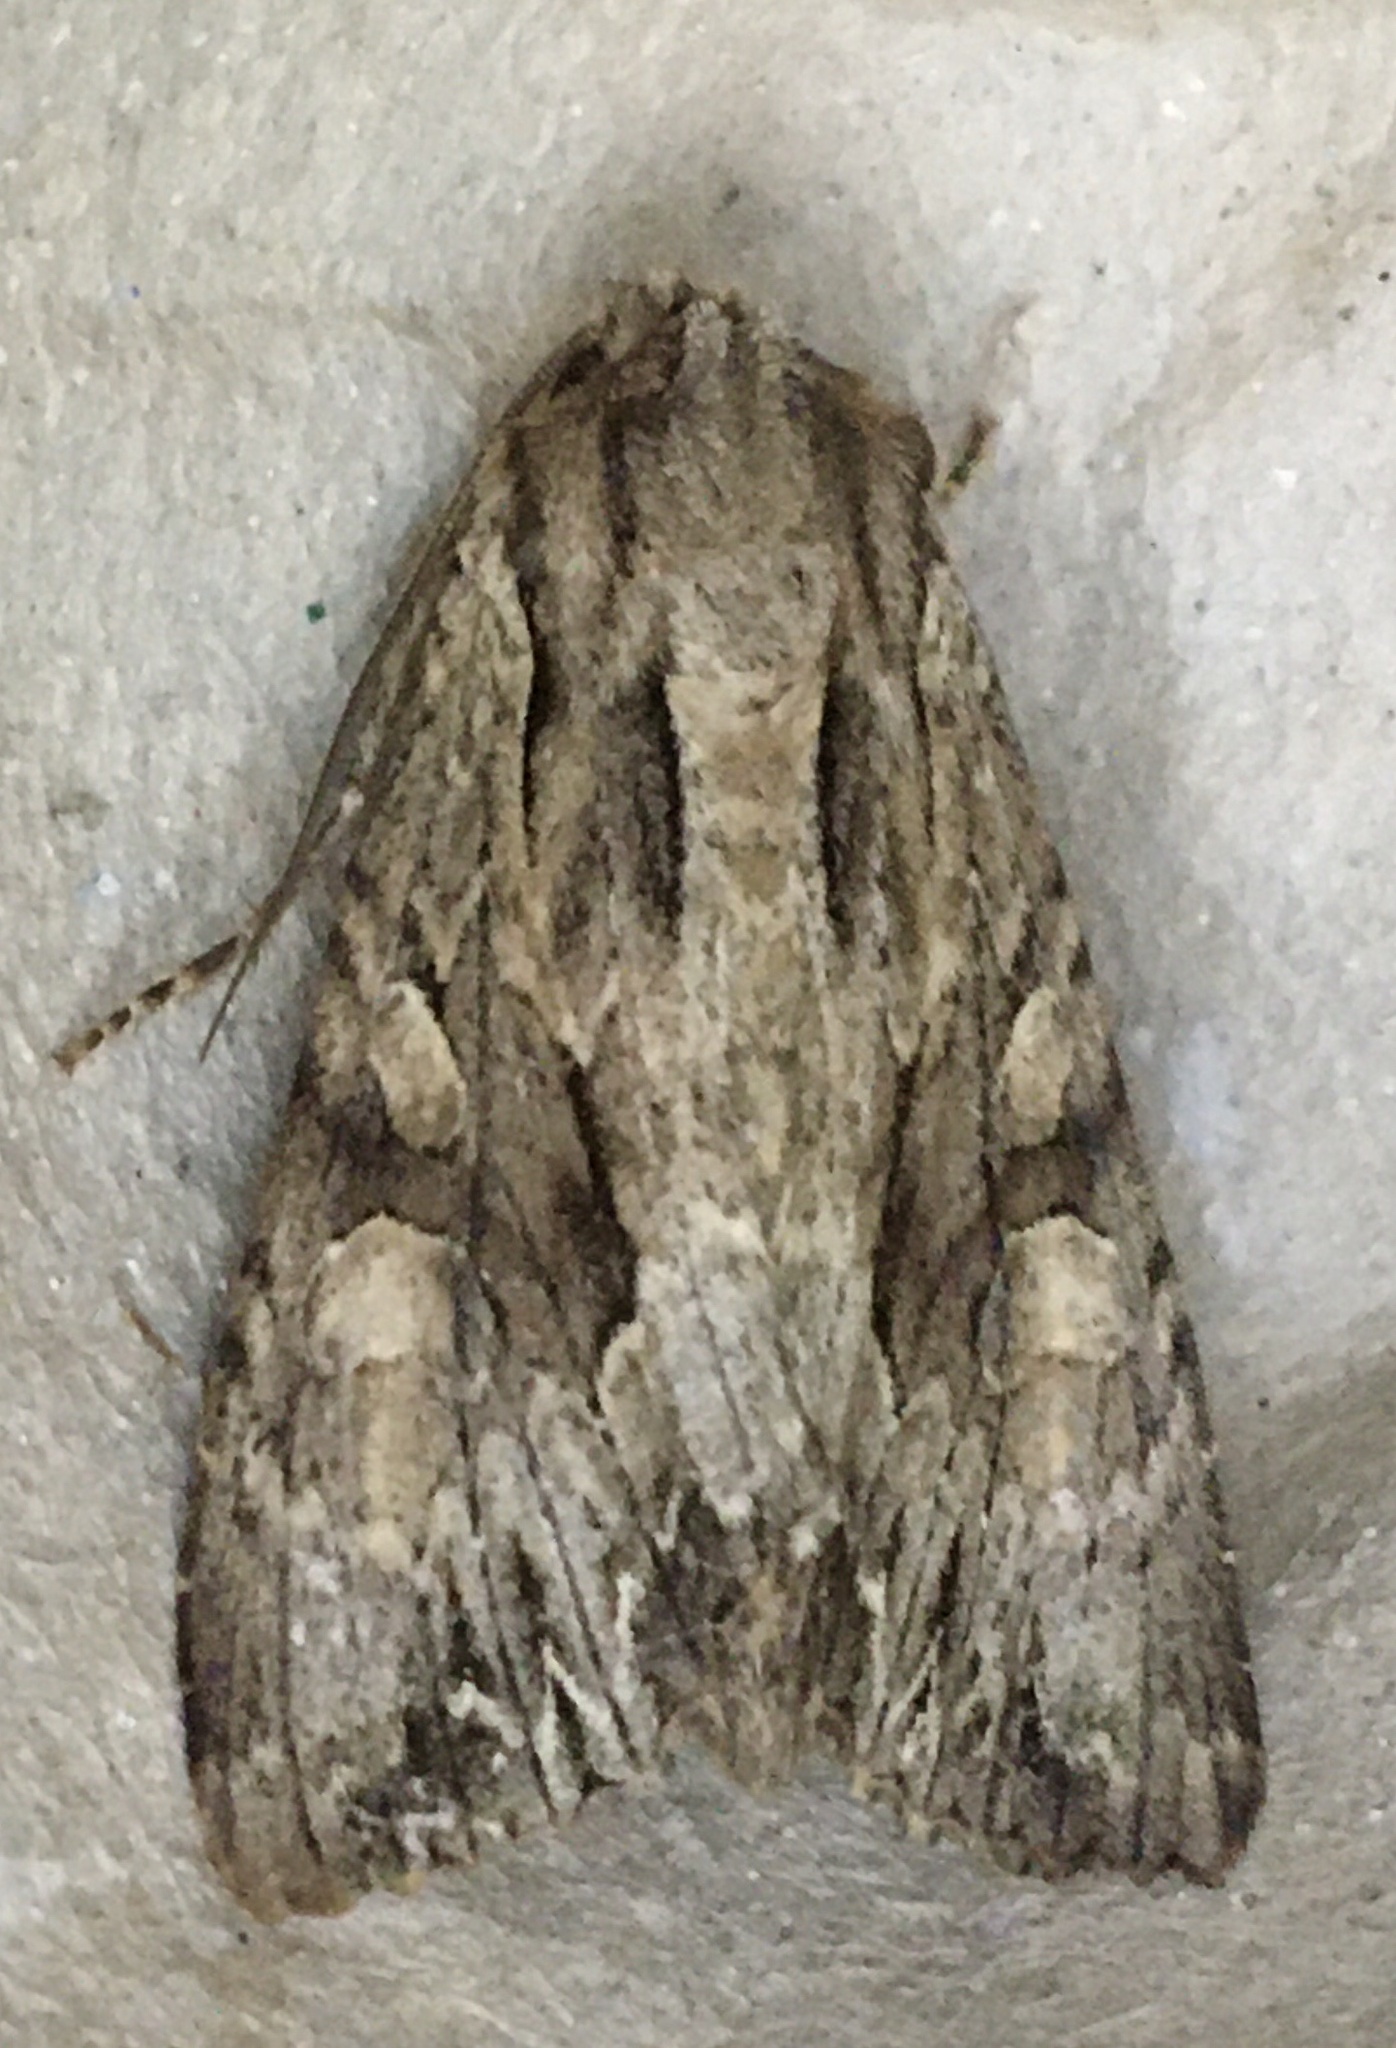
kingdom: Animalia
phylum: Arthropoda
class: Insecta
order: Lepidoptera
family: Noctuidae
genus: Apamea
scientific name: Apamea monoglypha
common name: Dark arches
